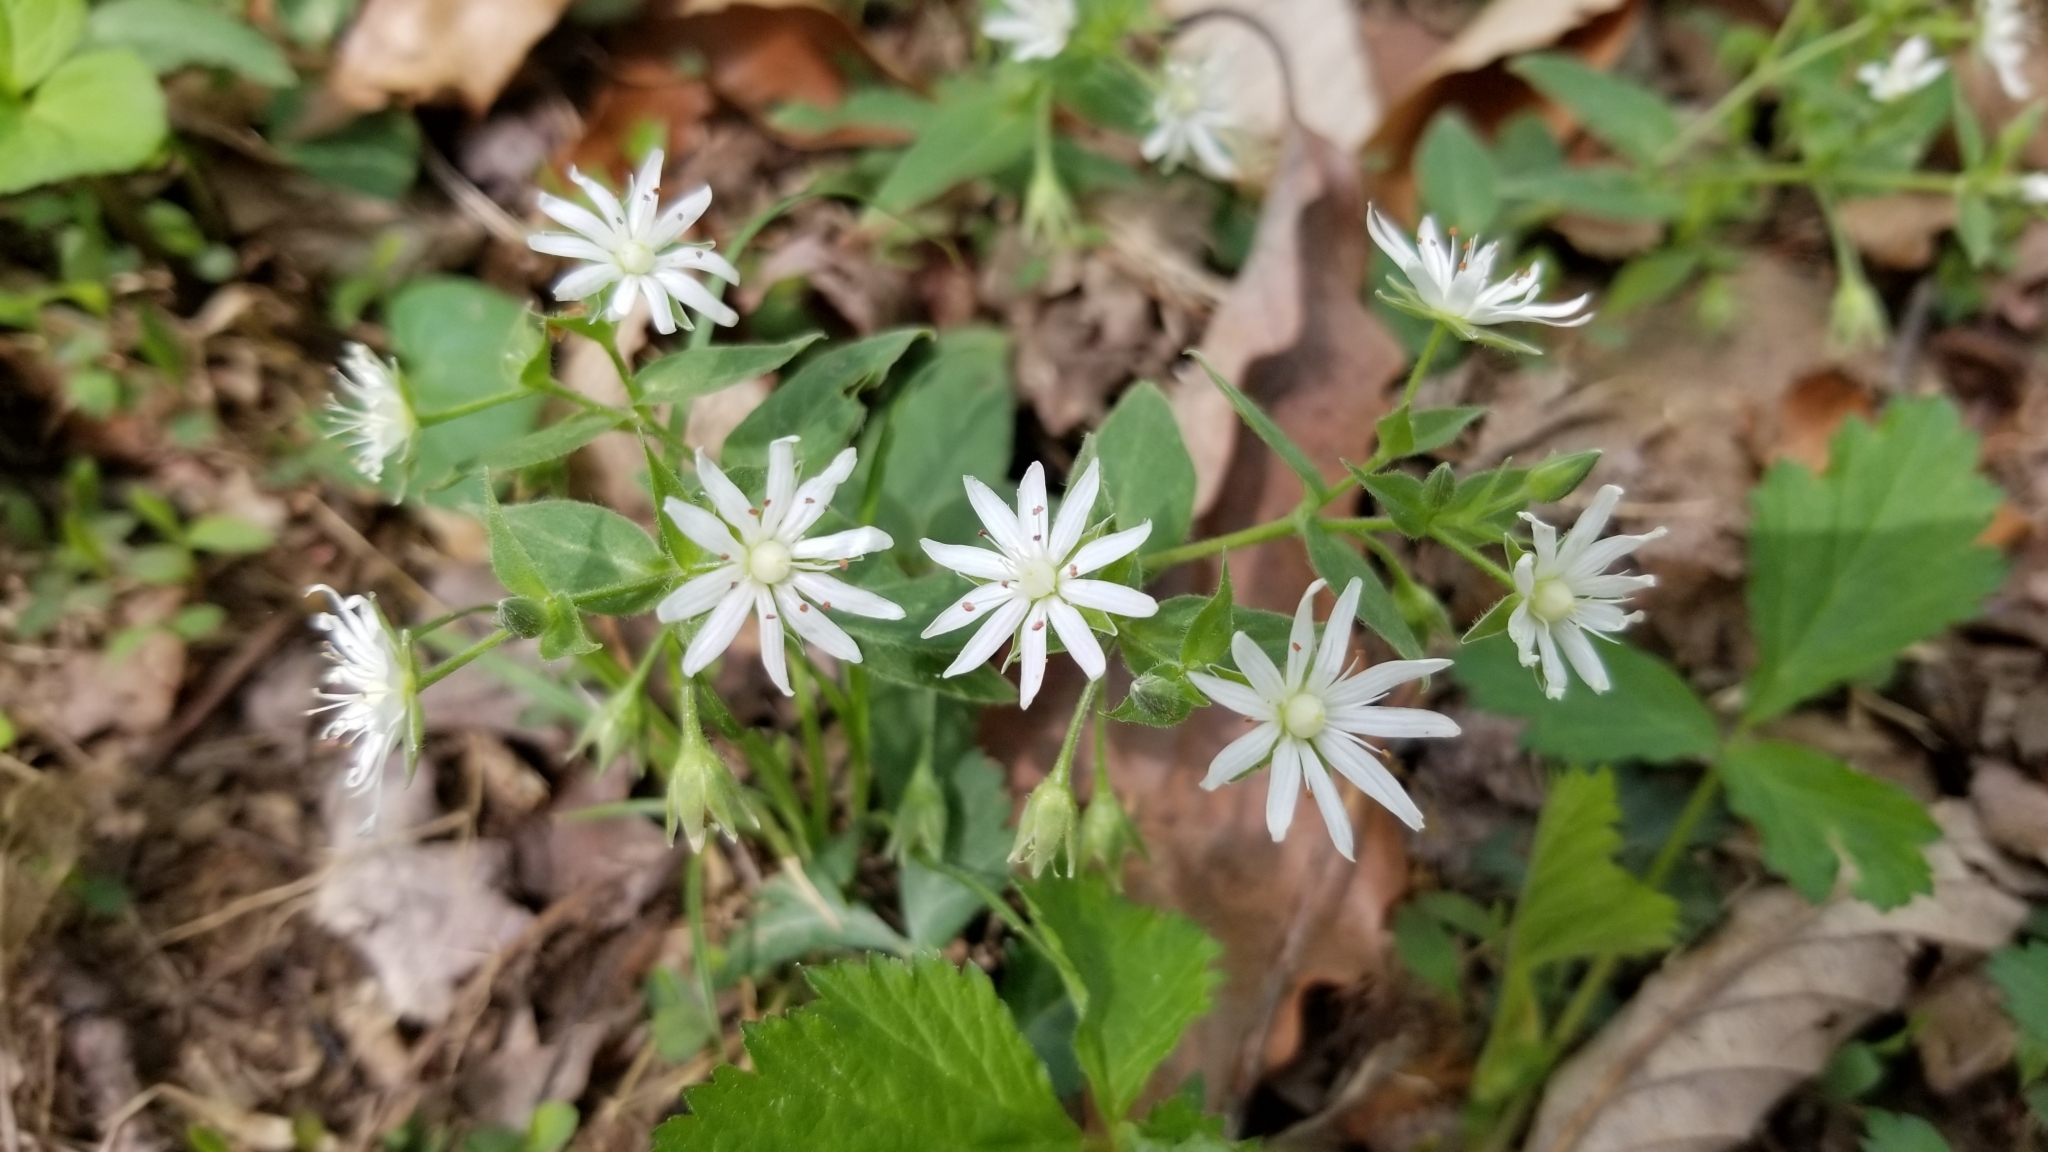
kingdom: Plantae
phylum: Tracheophyta
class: Magnoliopsida
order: Caryophyllales
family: Caryophyllaceae
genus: Stellaria
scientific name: Stellaria pubera
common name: Star chickweed
